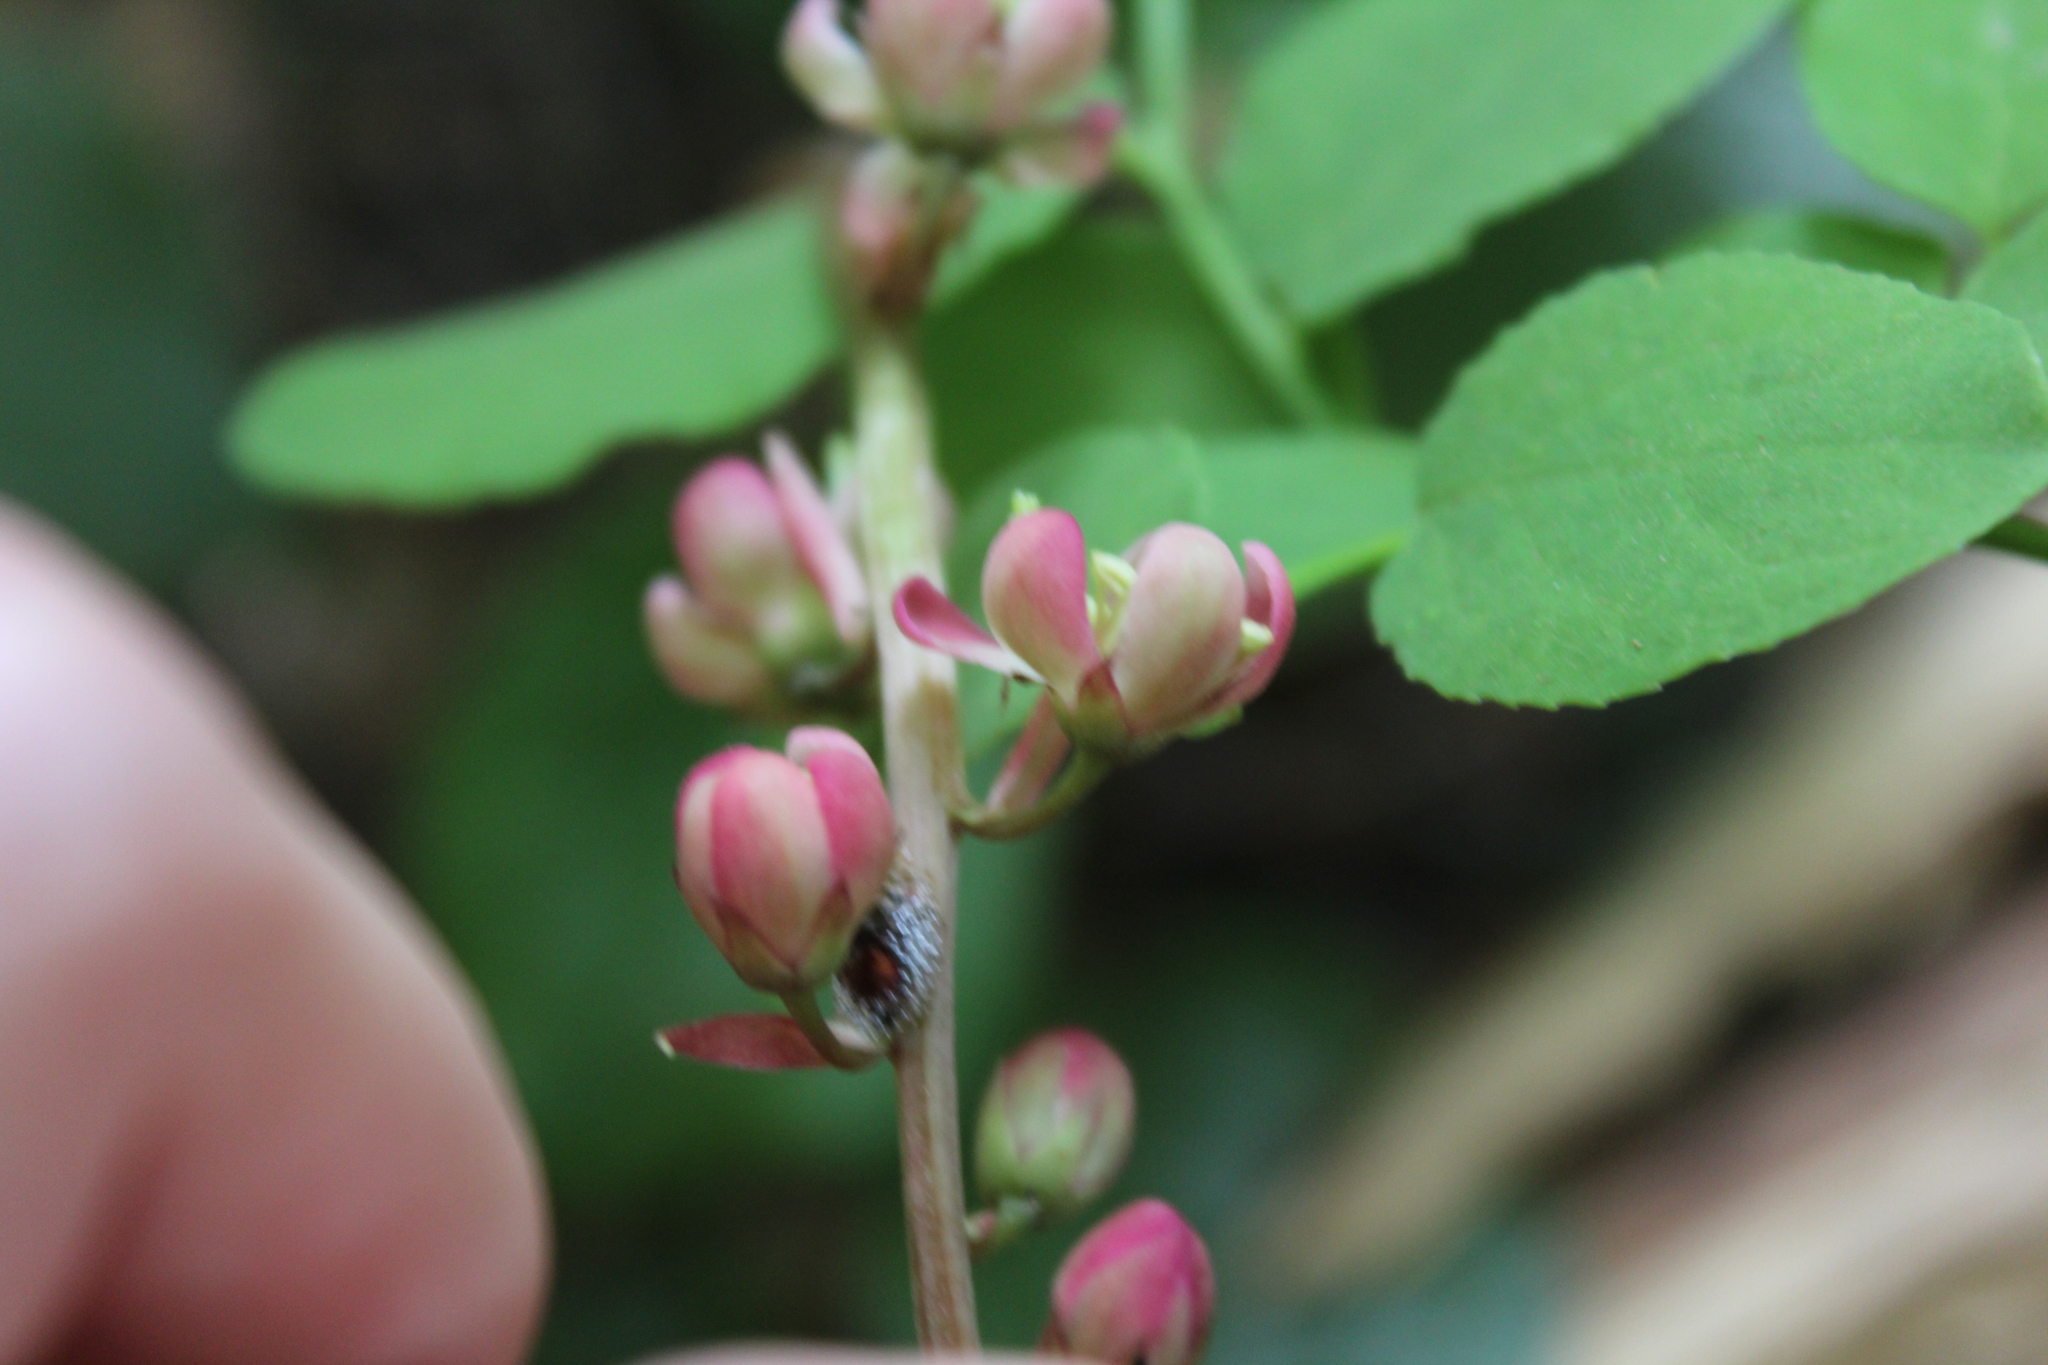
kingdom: Plantae
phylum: Tracheophyta
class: Magnoliopsida
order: Ericales
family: Ericaceae
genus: Pyrola
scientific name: Pyrola asarifolia
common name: Bog wintergreen
